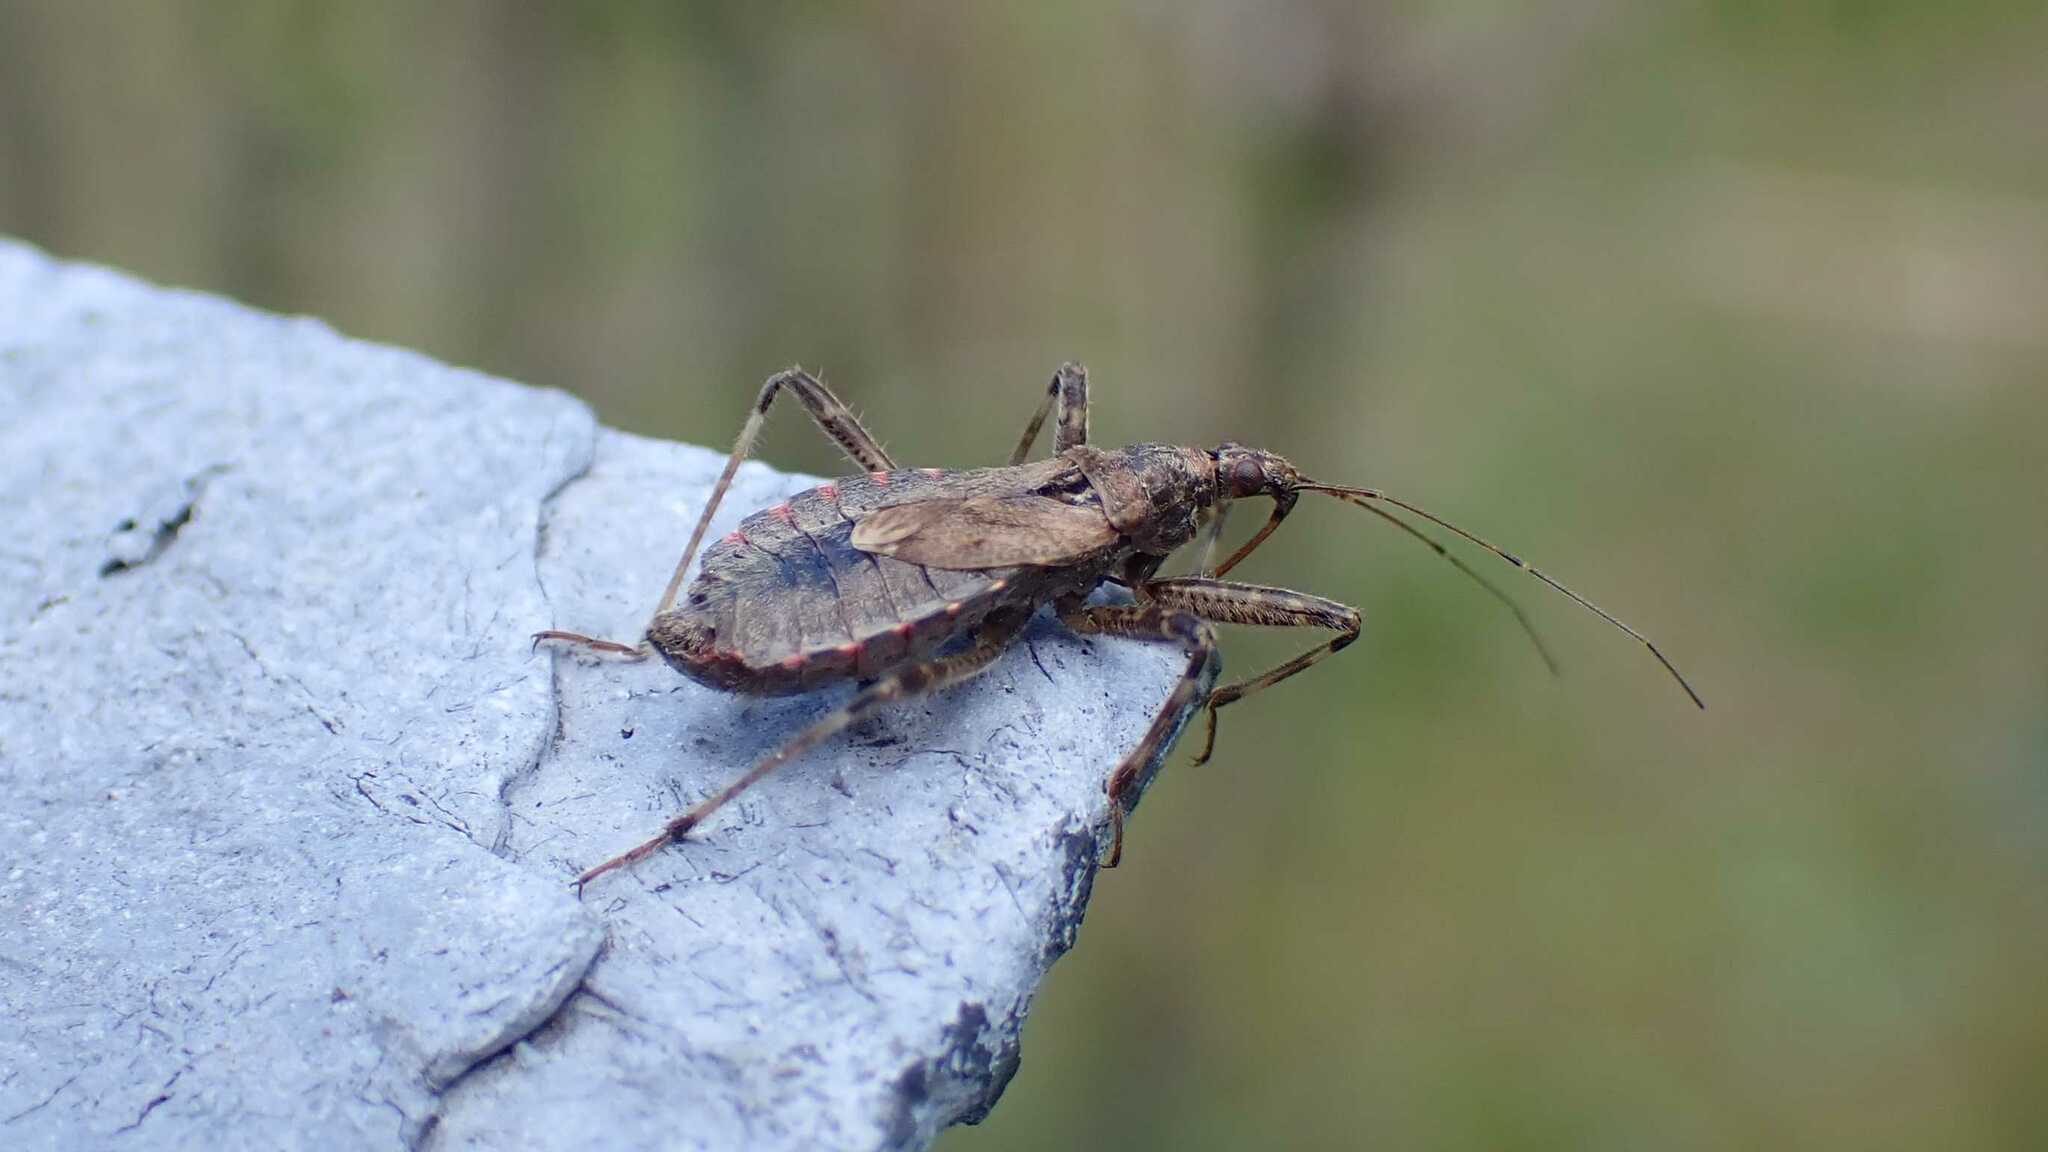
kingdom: Animalia
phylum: Arthropoda
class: Insecta
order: Hemiptera
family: Nabidae
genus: Himacerus
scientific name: Himacerus apterus
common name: Tree damsel bug
